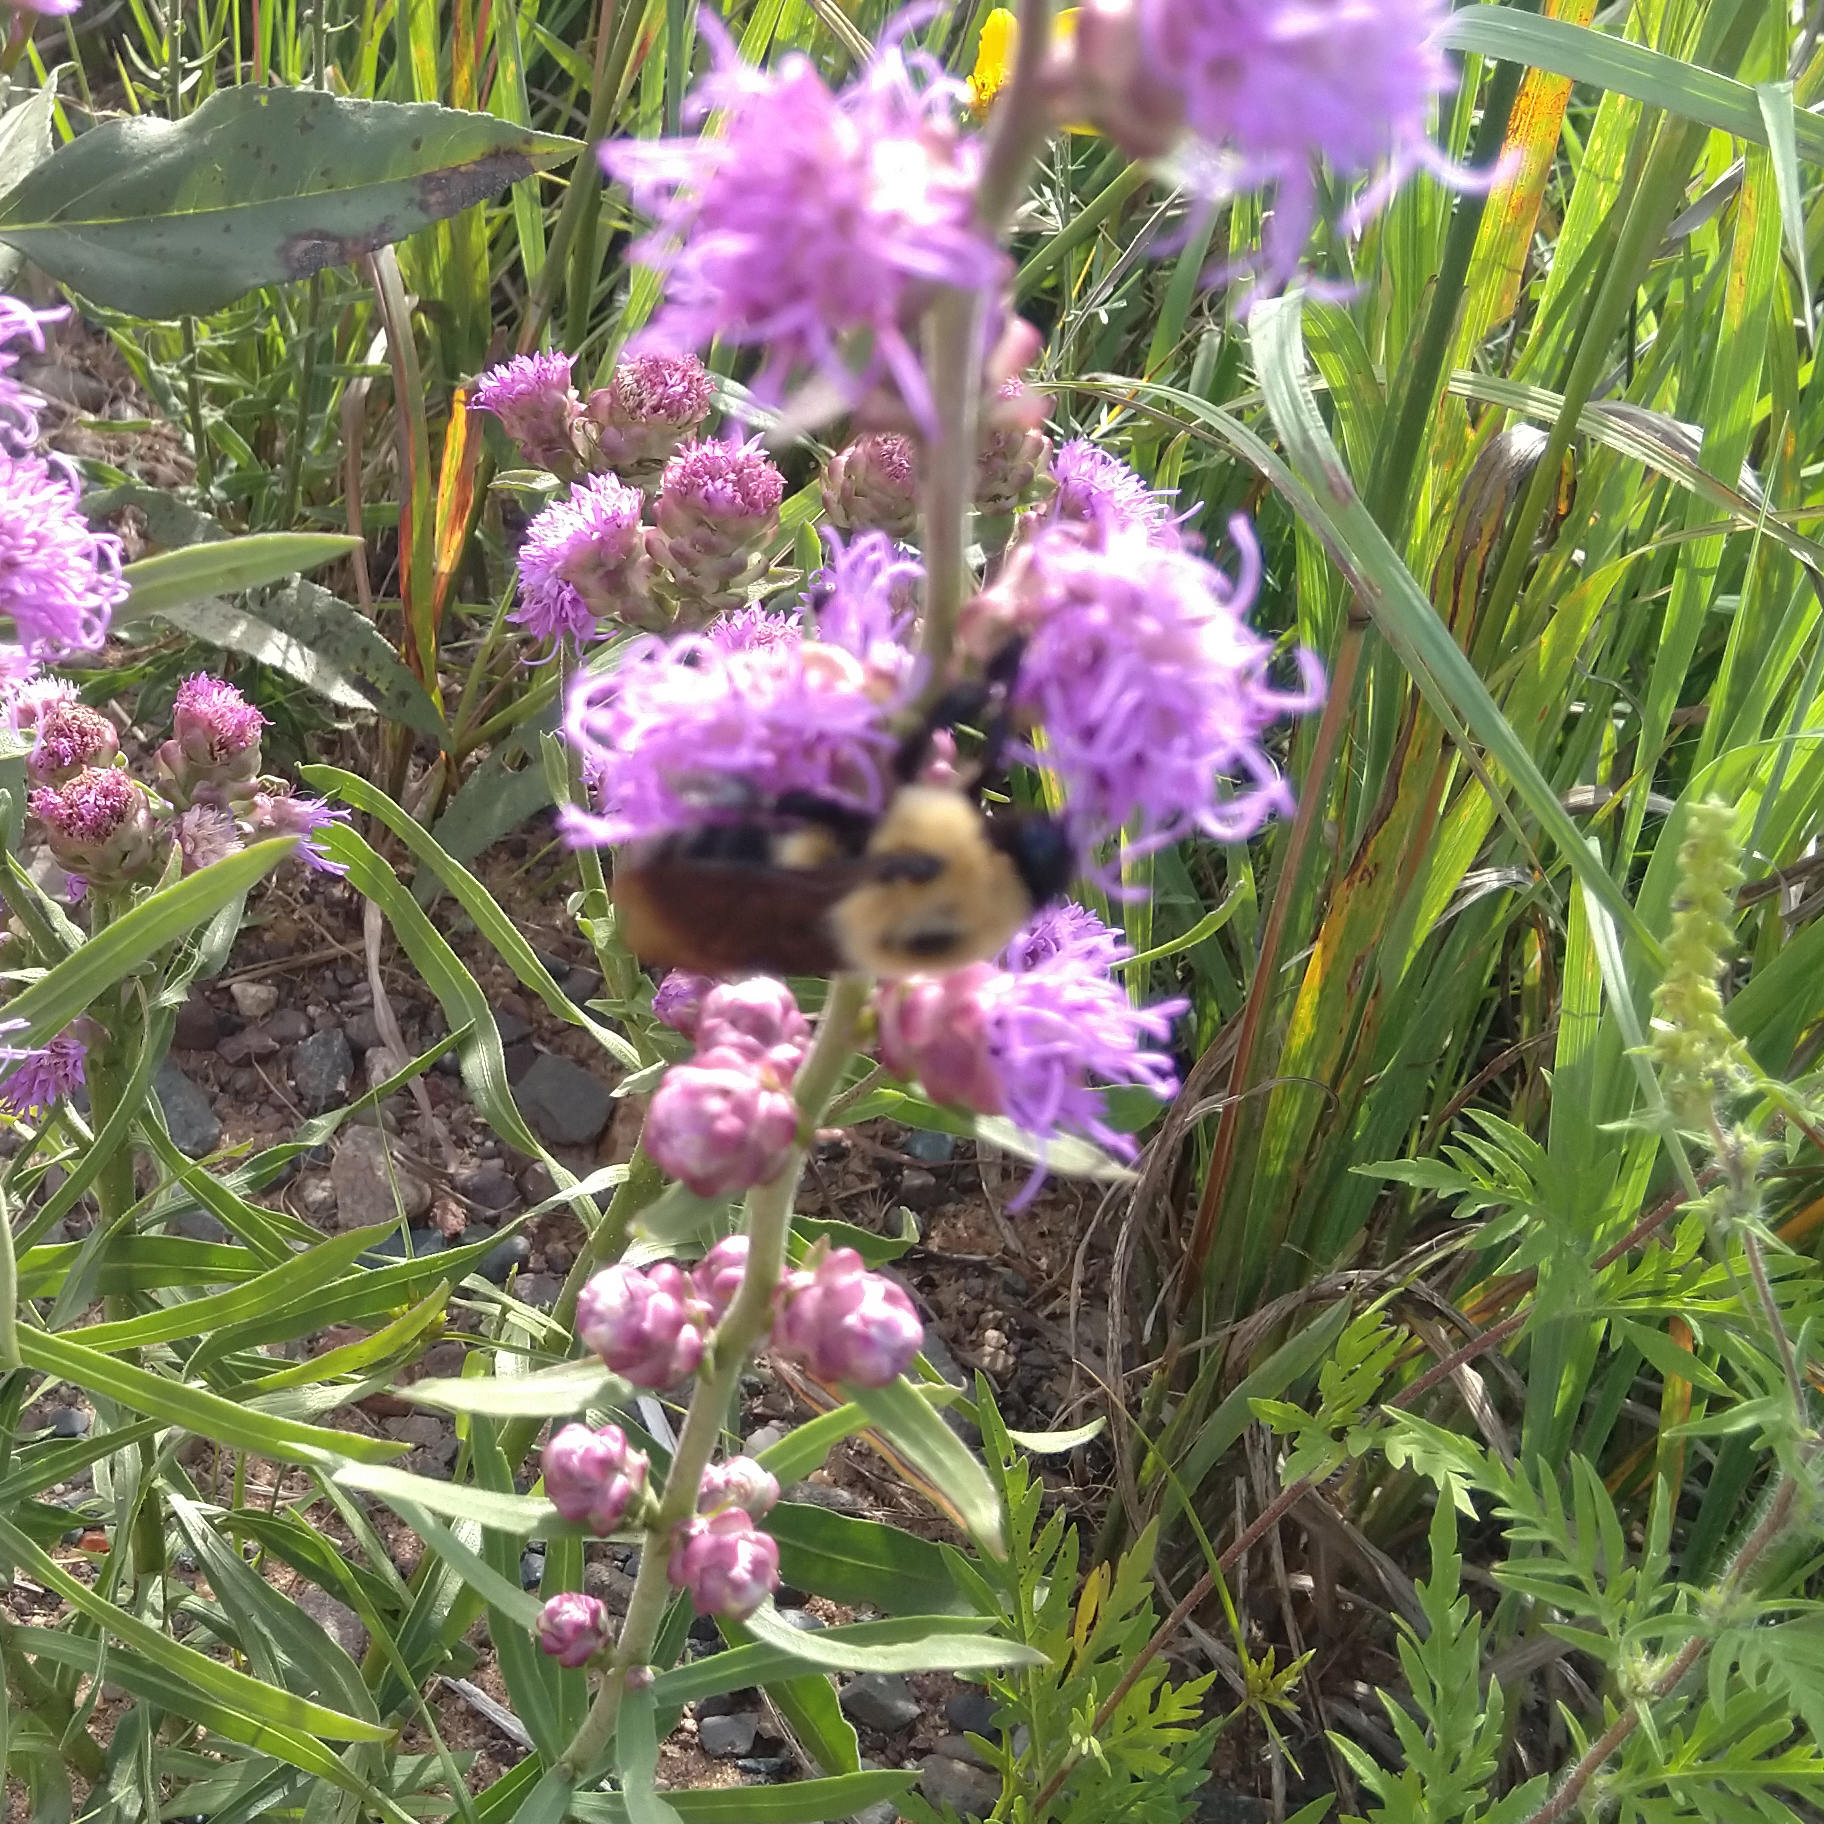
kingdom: Animalia
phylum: Arthropoda
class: Insecta
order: Hymenoptera
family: Apidae
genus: Bombus
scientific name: Bombus griseocollis
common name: Brown-belted bumble bee
